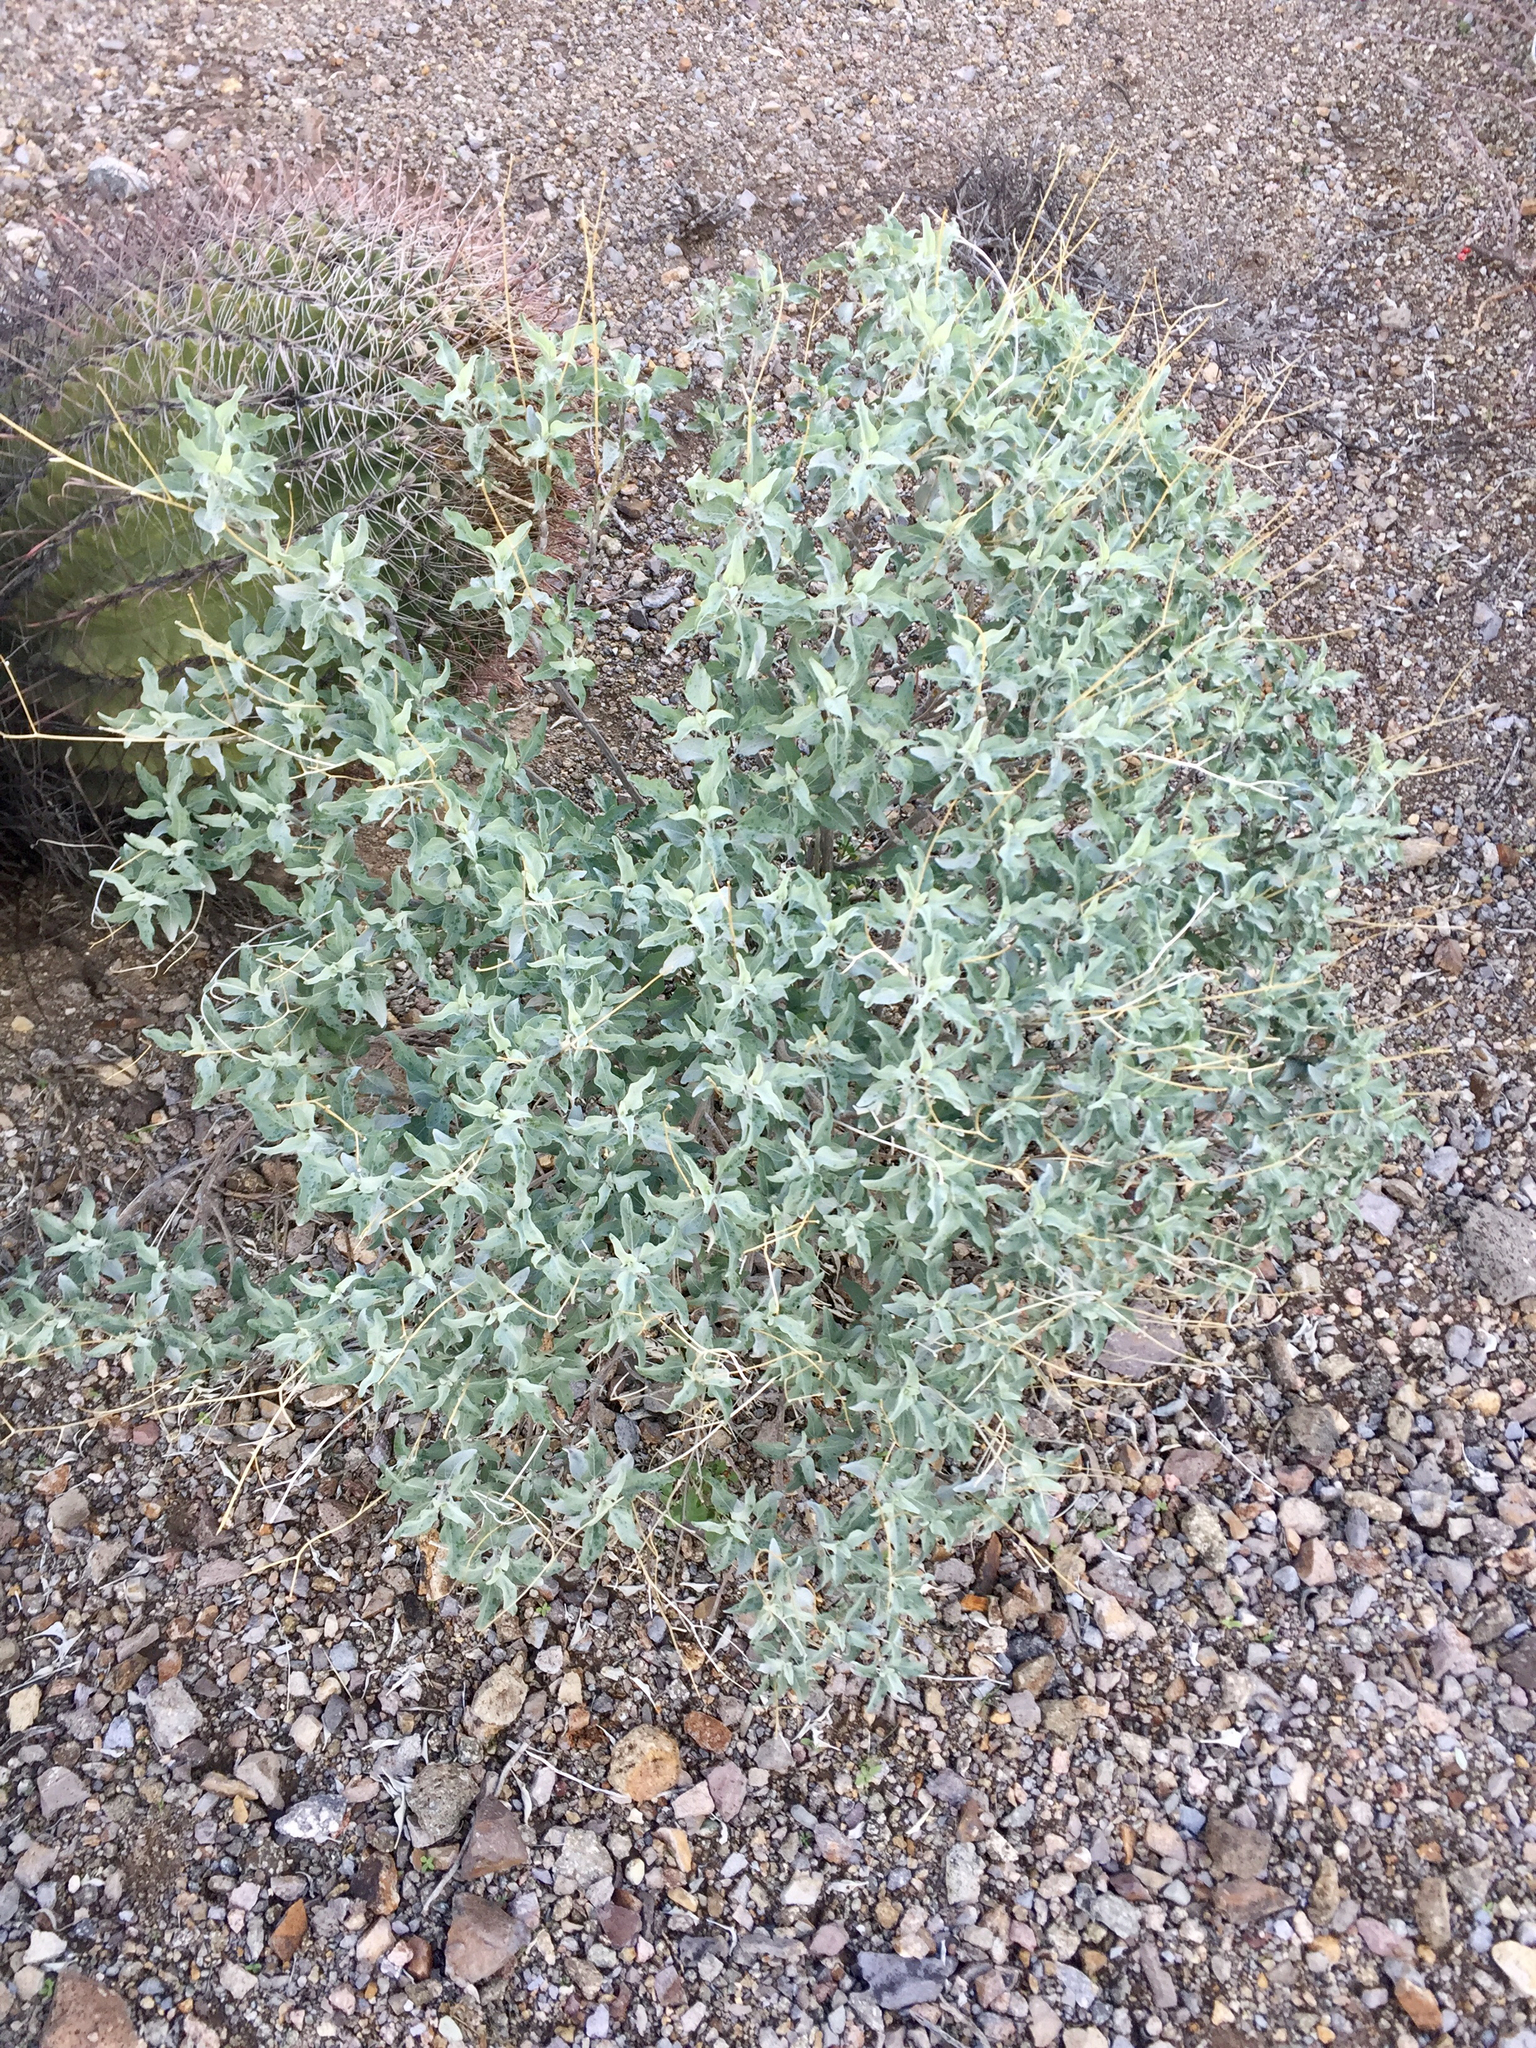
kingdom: Plantae
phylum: Tracheophyta
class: Magnoliopsida
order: Asterales
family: Asteraceae
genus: Encelia
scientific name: Encelia farinosa
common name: Brittlebush
